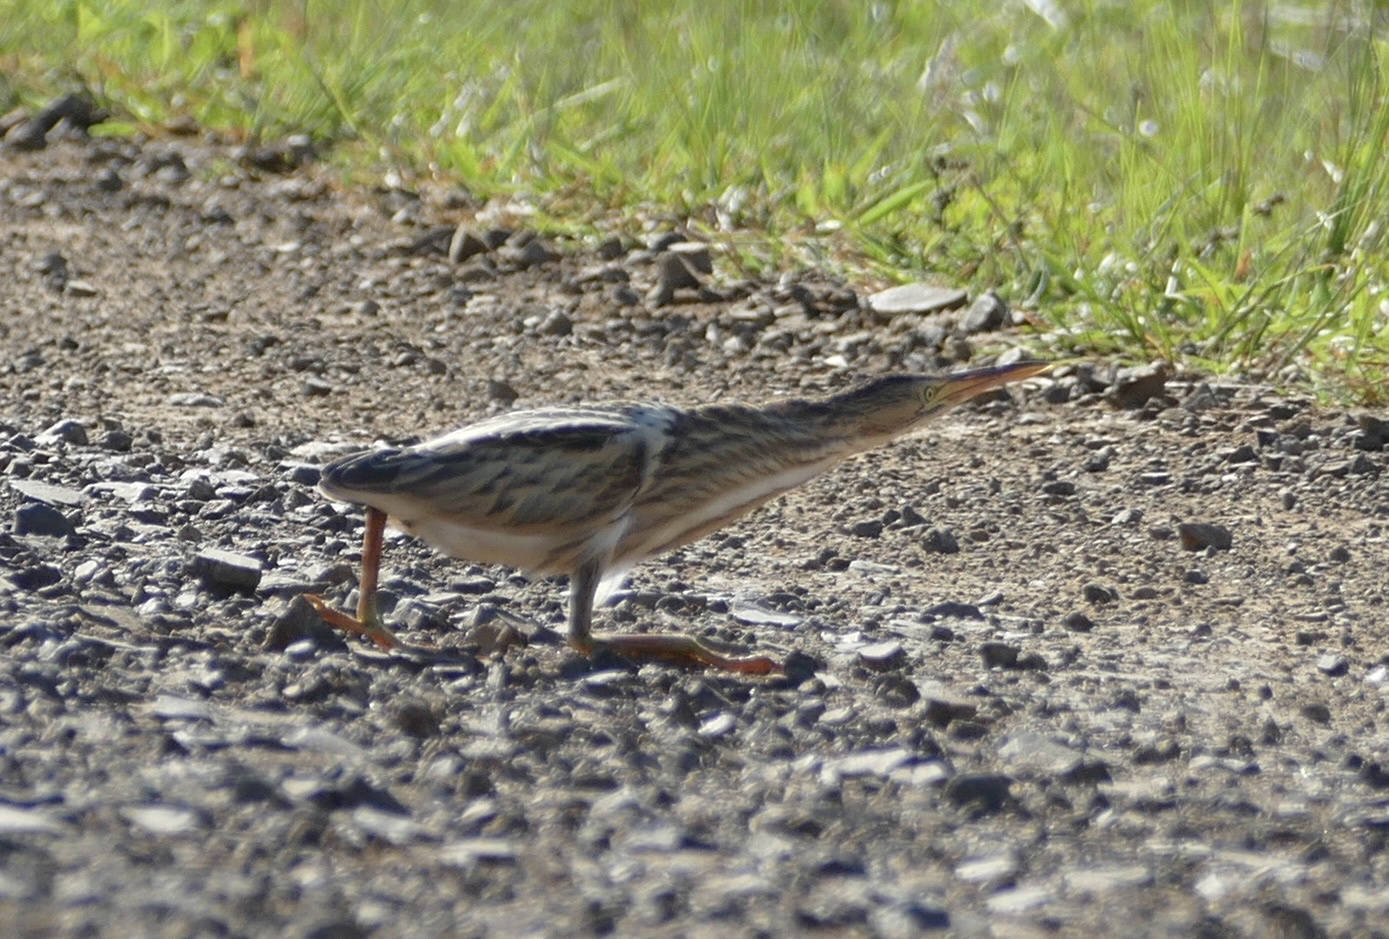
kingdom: Animalia
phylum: Chordata
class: Aves
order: Pelecaniformes
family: Ardeidae
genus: Ixobrychus
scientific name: Ixobrychus minutus
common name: Little bittern
